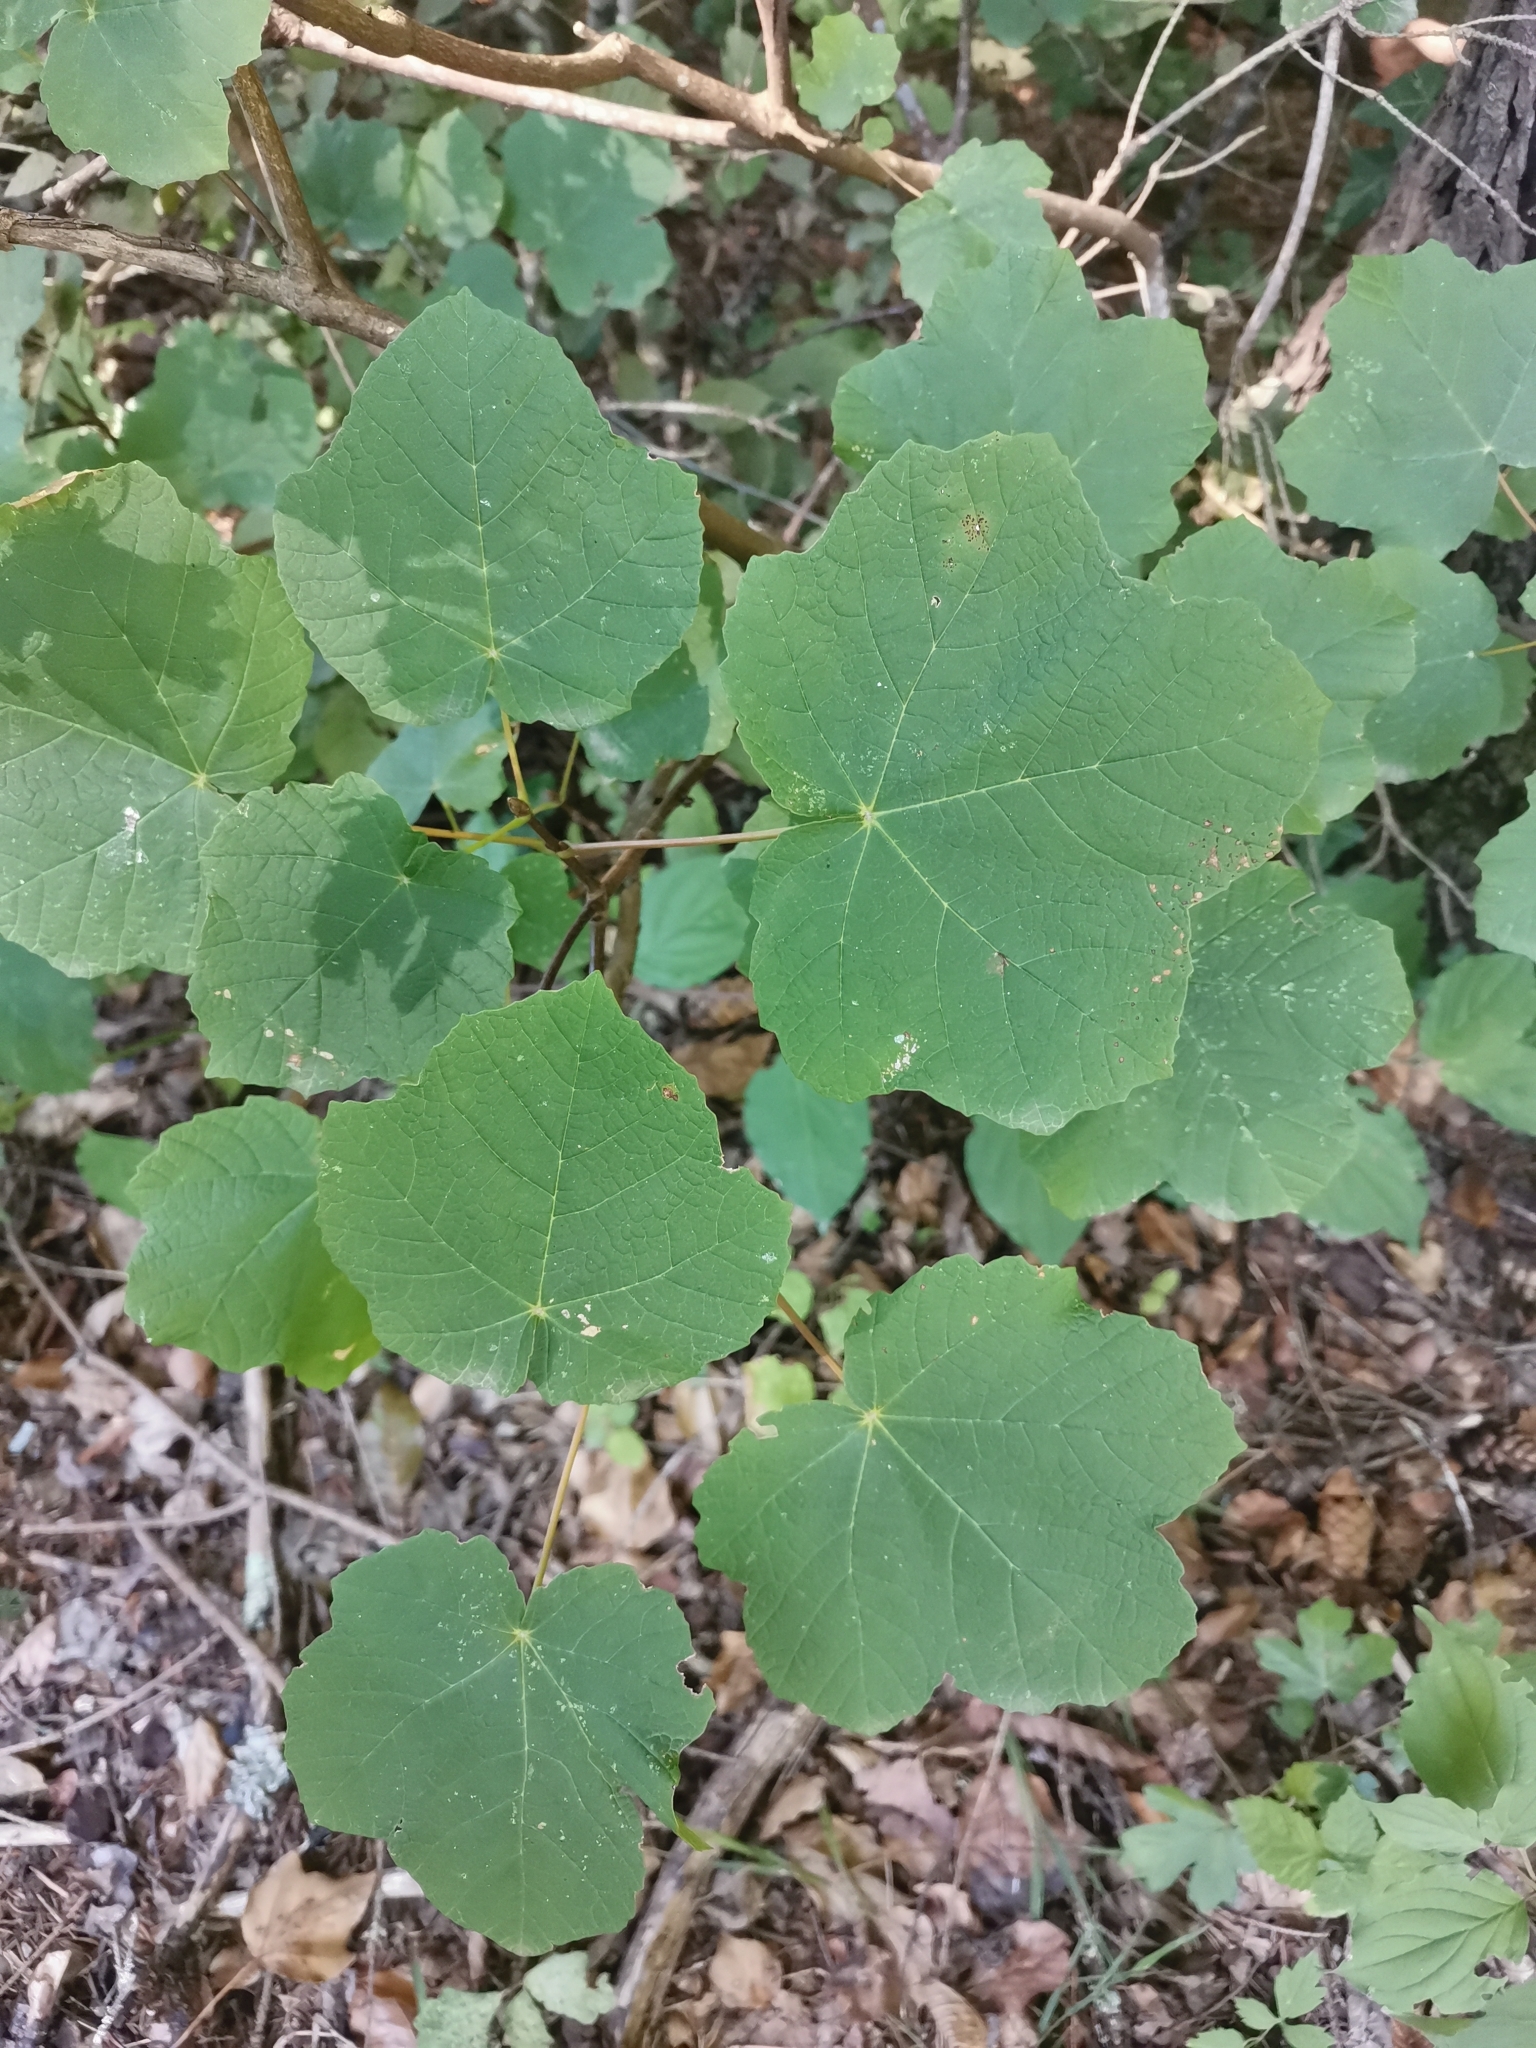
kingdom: Plantae
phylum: Tracheophyta
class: Magnoliopsida
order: Sapindales
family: Sapindaceae
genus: Acer
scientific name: Acer obtusatum
